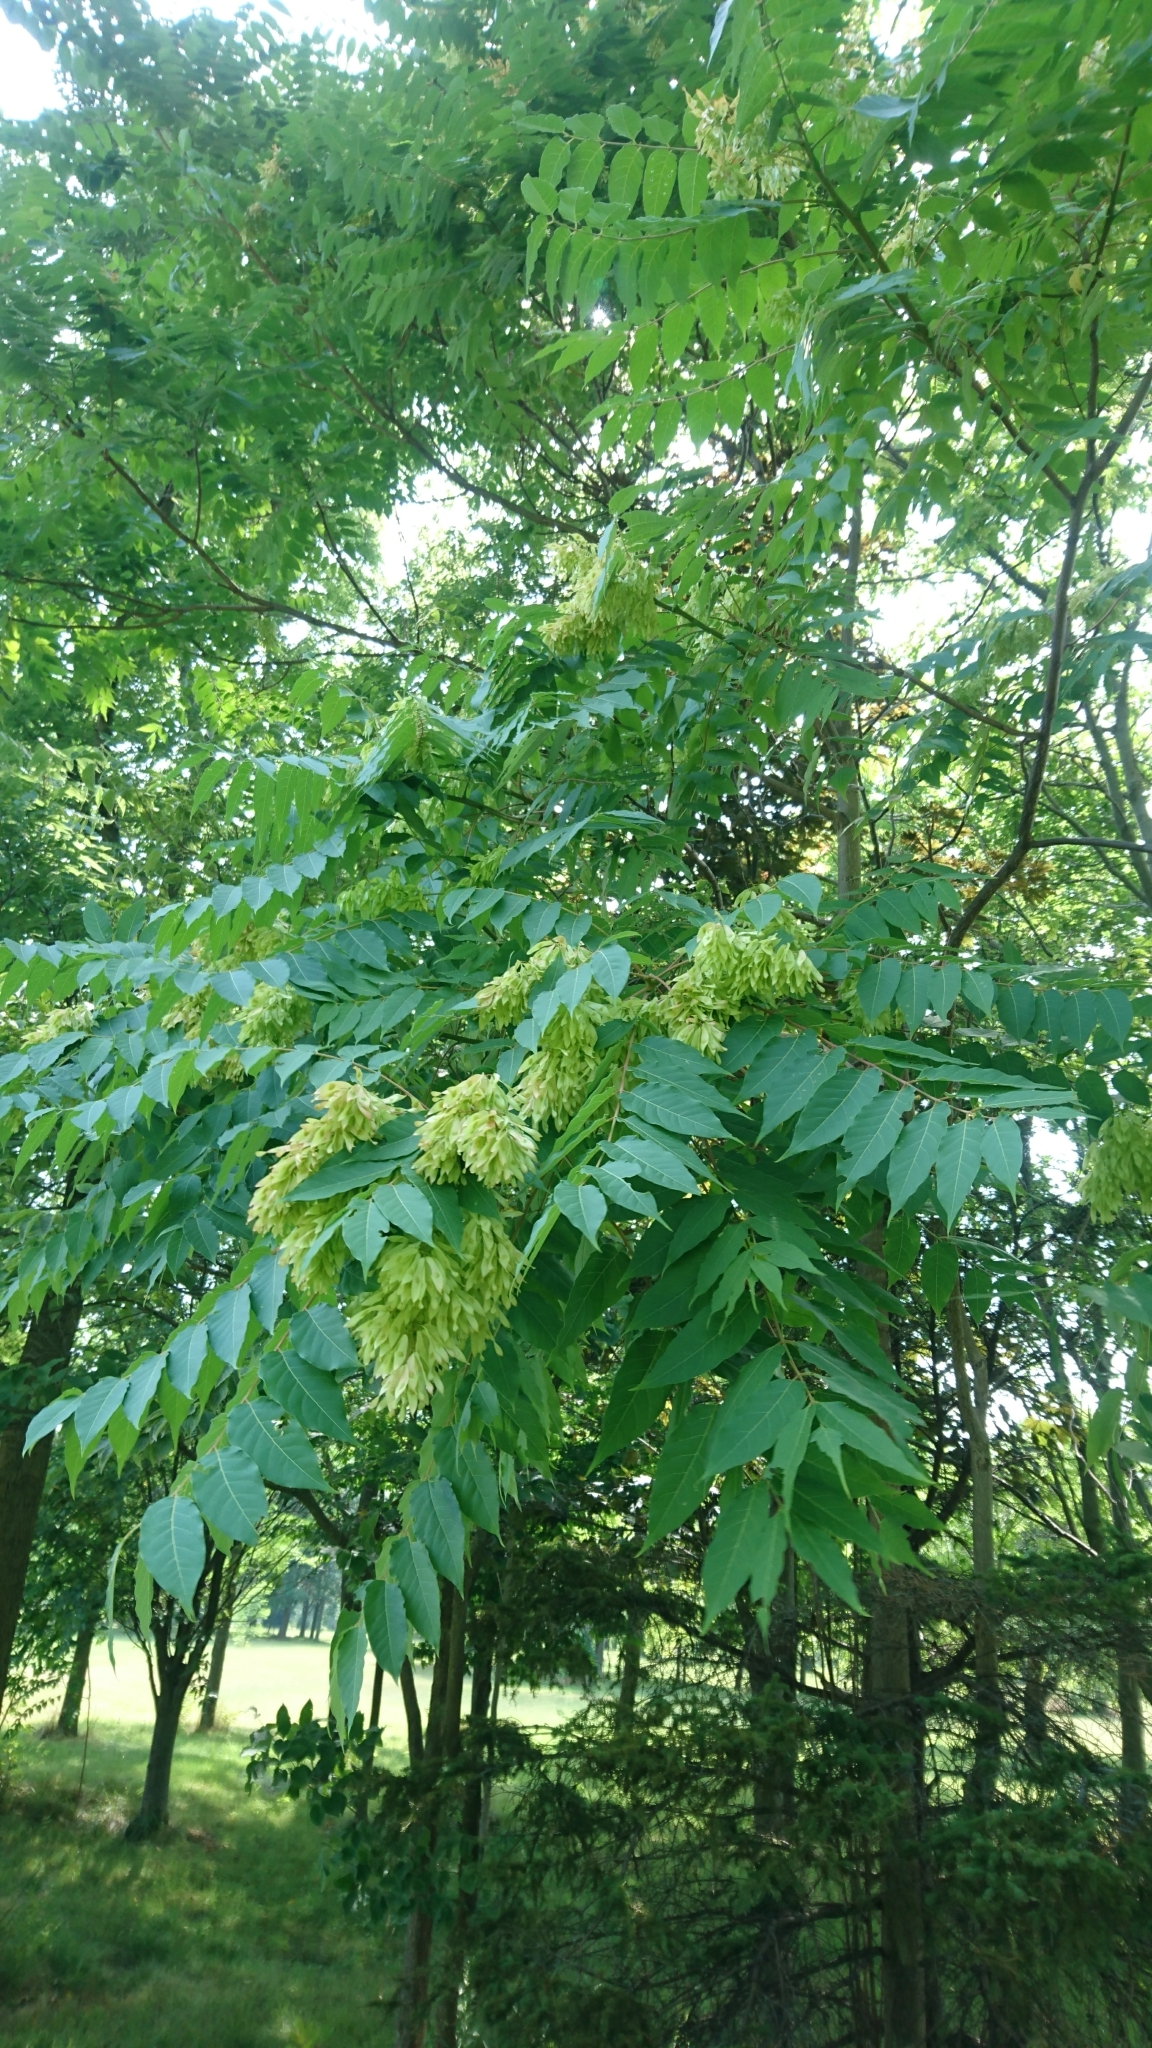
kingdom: Plantae
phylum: Tracheophyta
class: Magnoliopsida
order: Sapindales
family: Simaroubaceae
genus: Ailanthus
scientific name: Ailanthus altissima
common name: Tree-of-heaven
